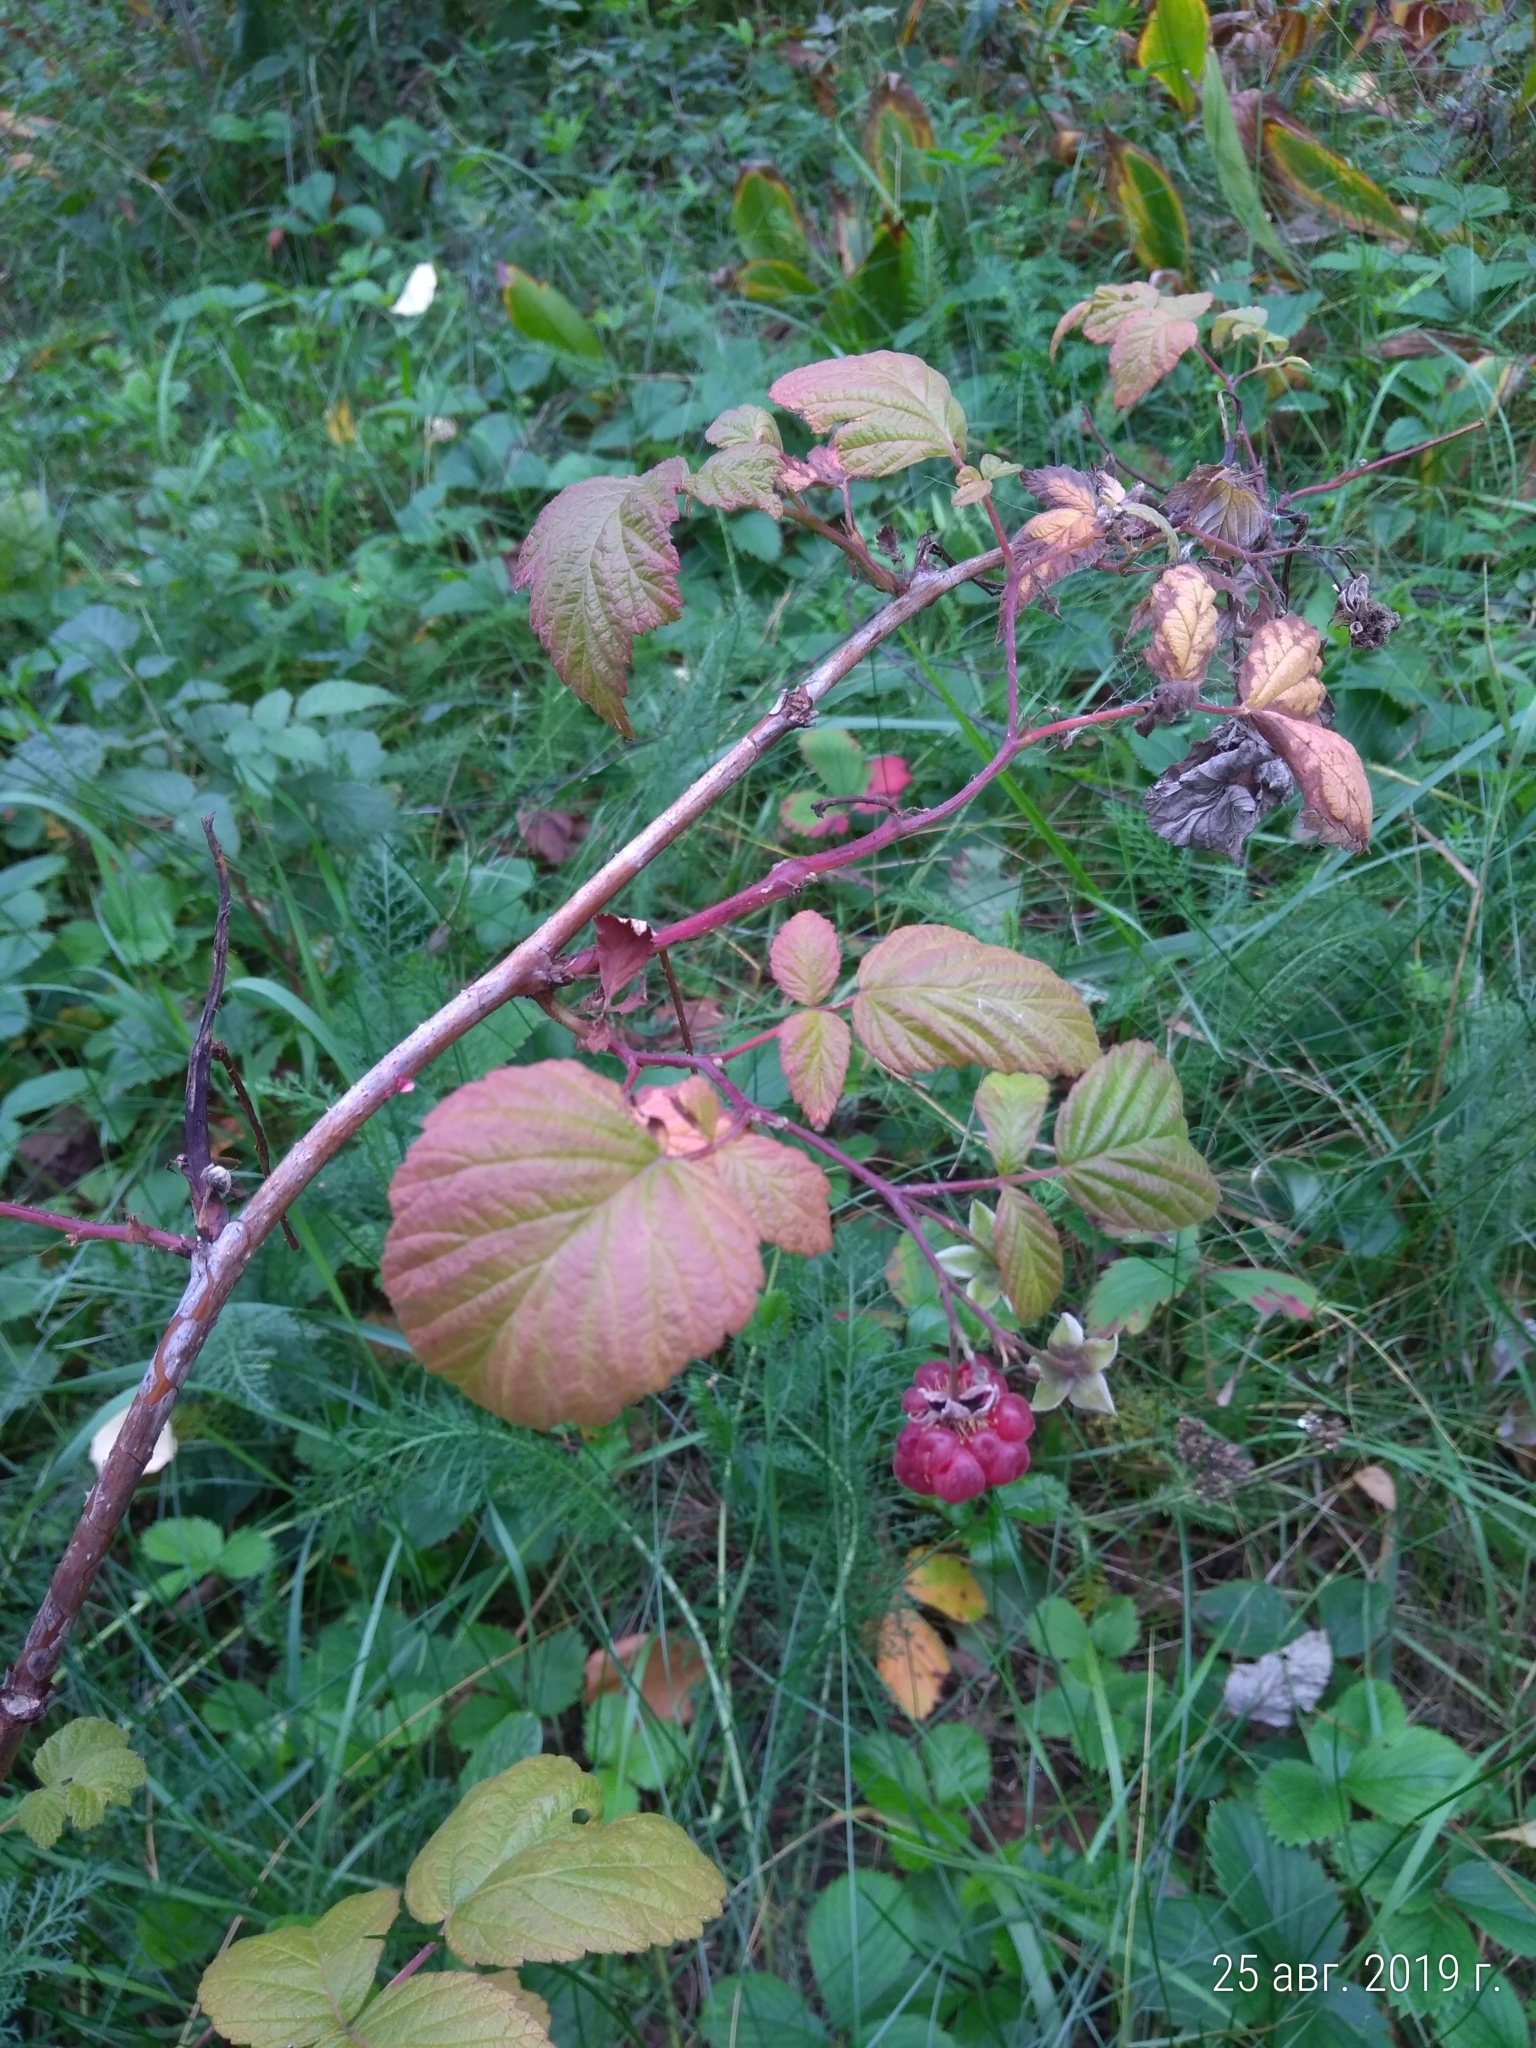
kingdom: Plantae
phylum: Tracheophyta
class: Magnoliopsida
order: Rosales
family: Rosaceae
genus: Rubus
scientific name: Rubus idaeus
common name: Raspberry
